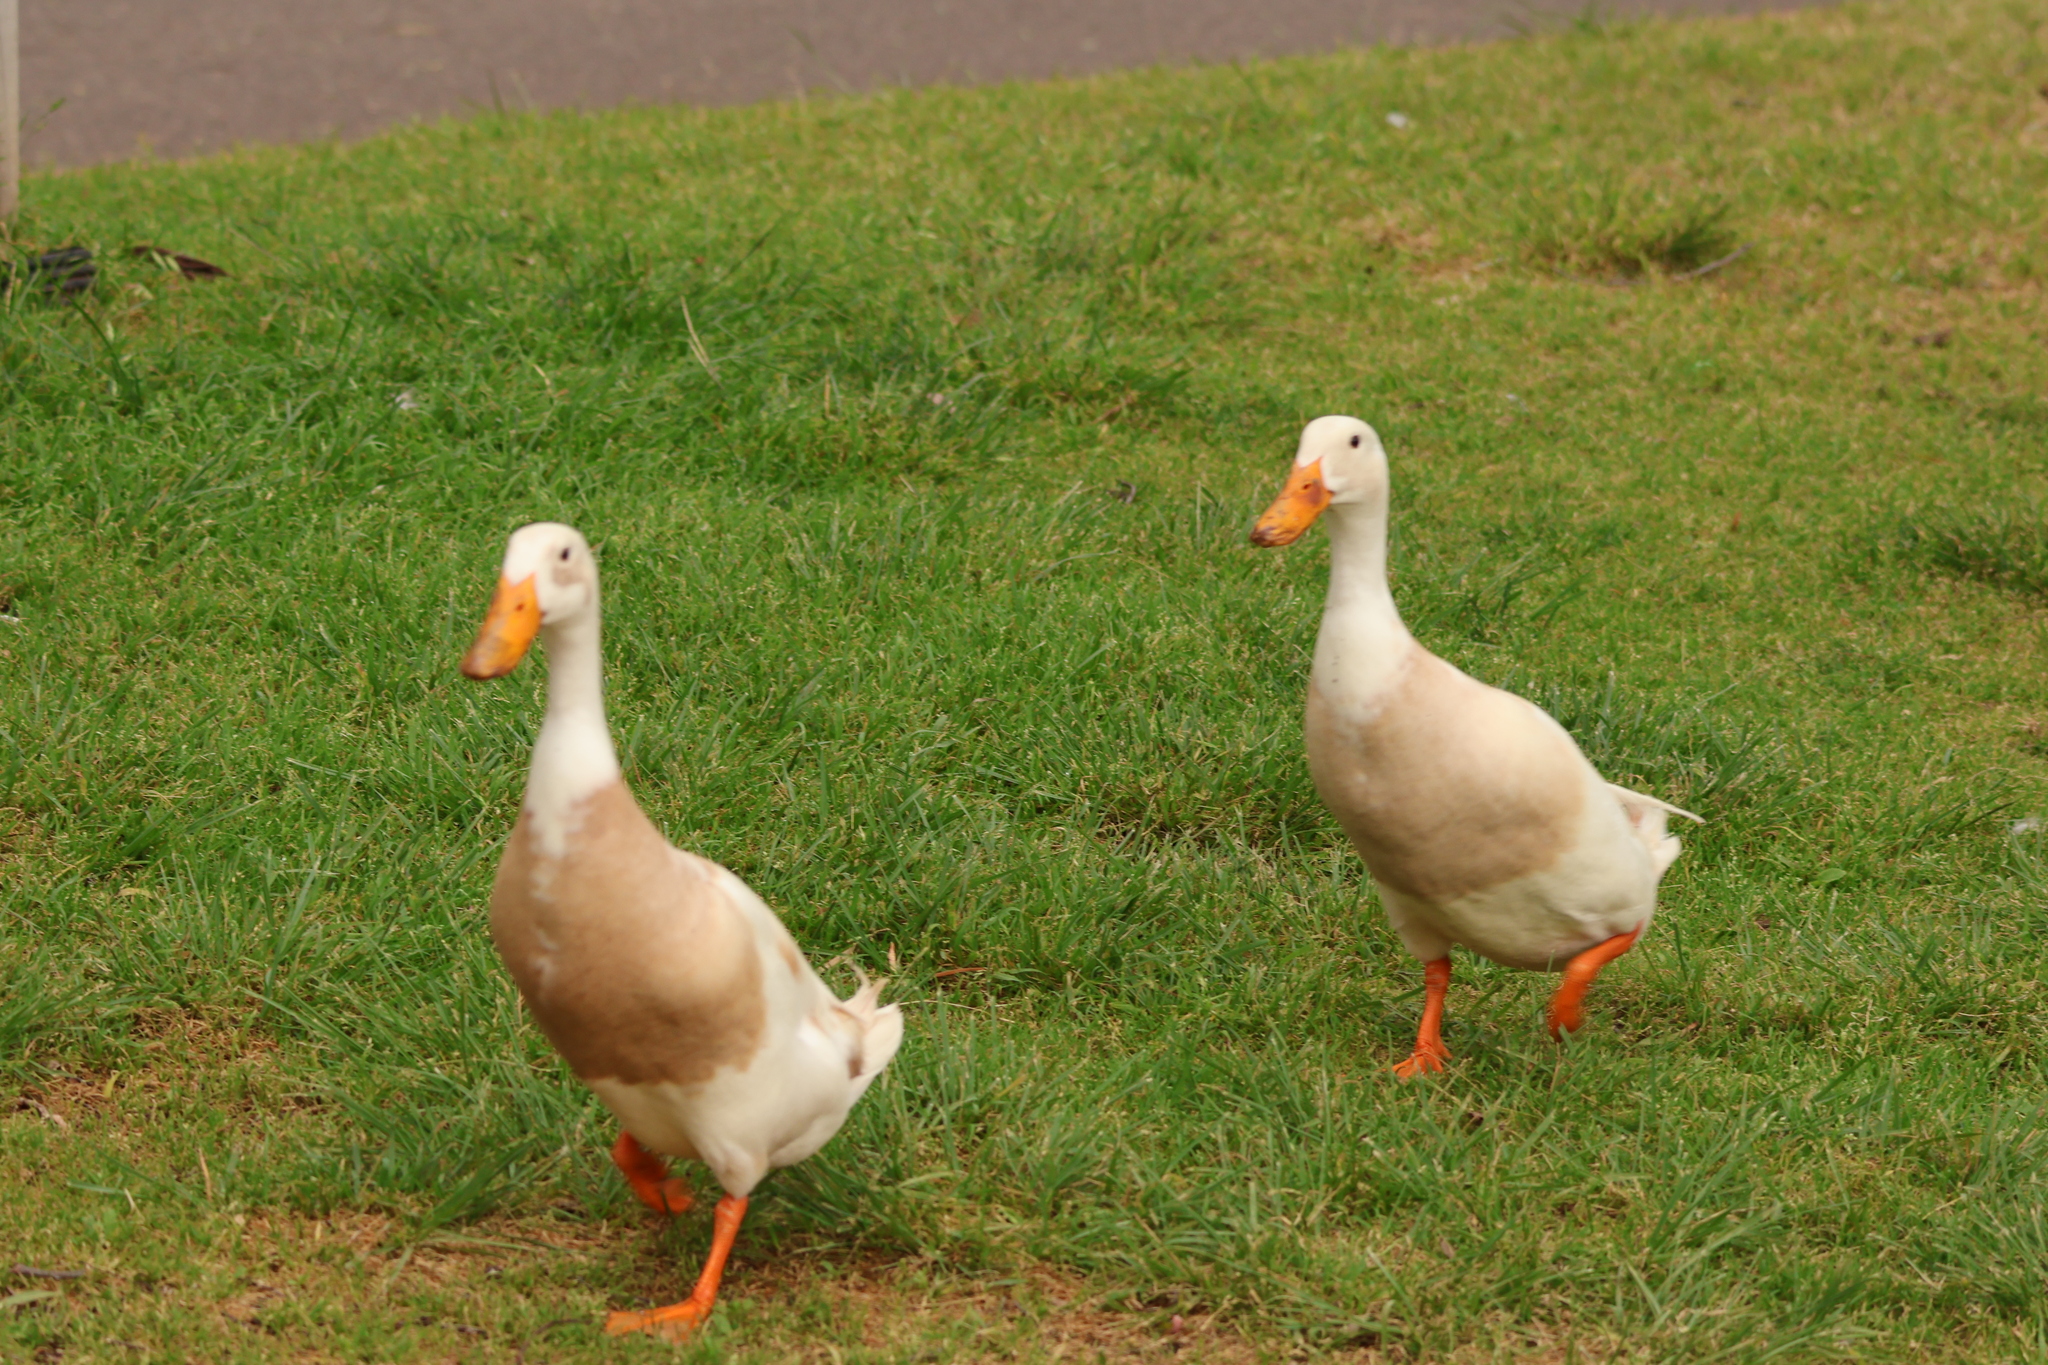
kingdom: Animalia
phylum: Chordata
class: Aves
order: Anseriformes
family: Anatidae
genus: Anas
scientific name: Anas platyrhynchos
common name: Mallard
